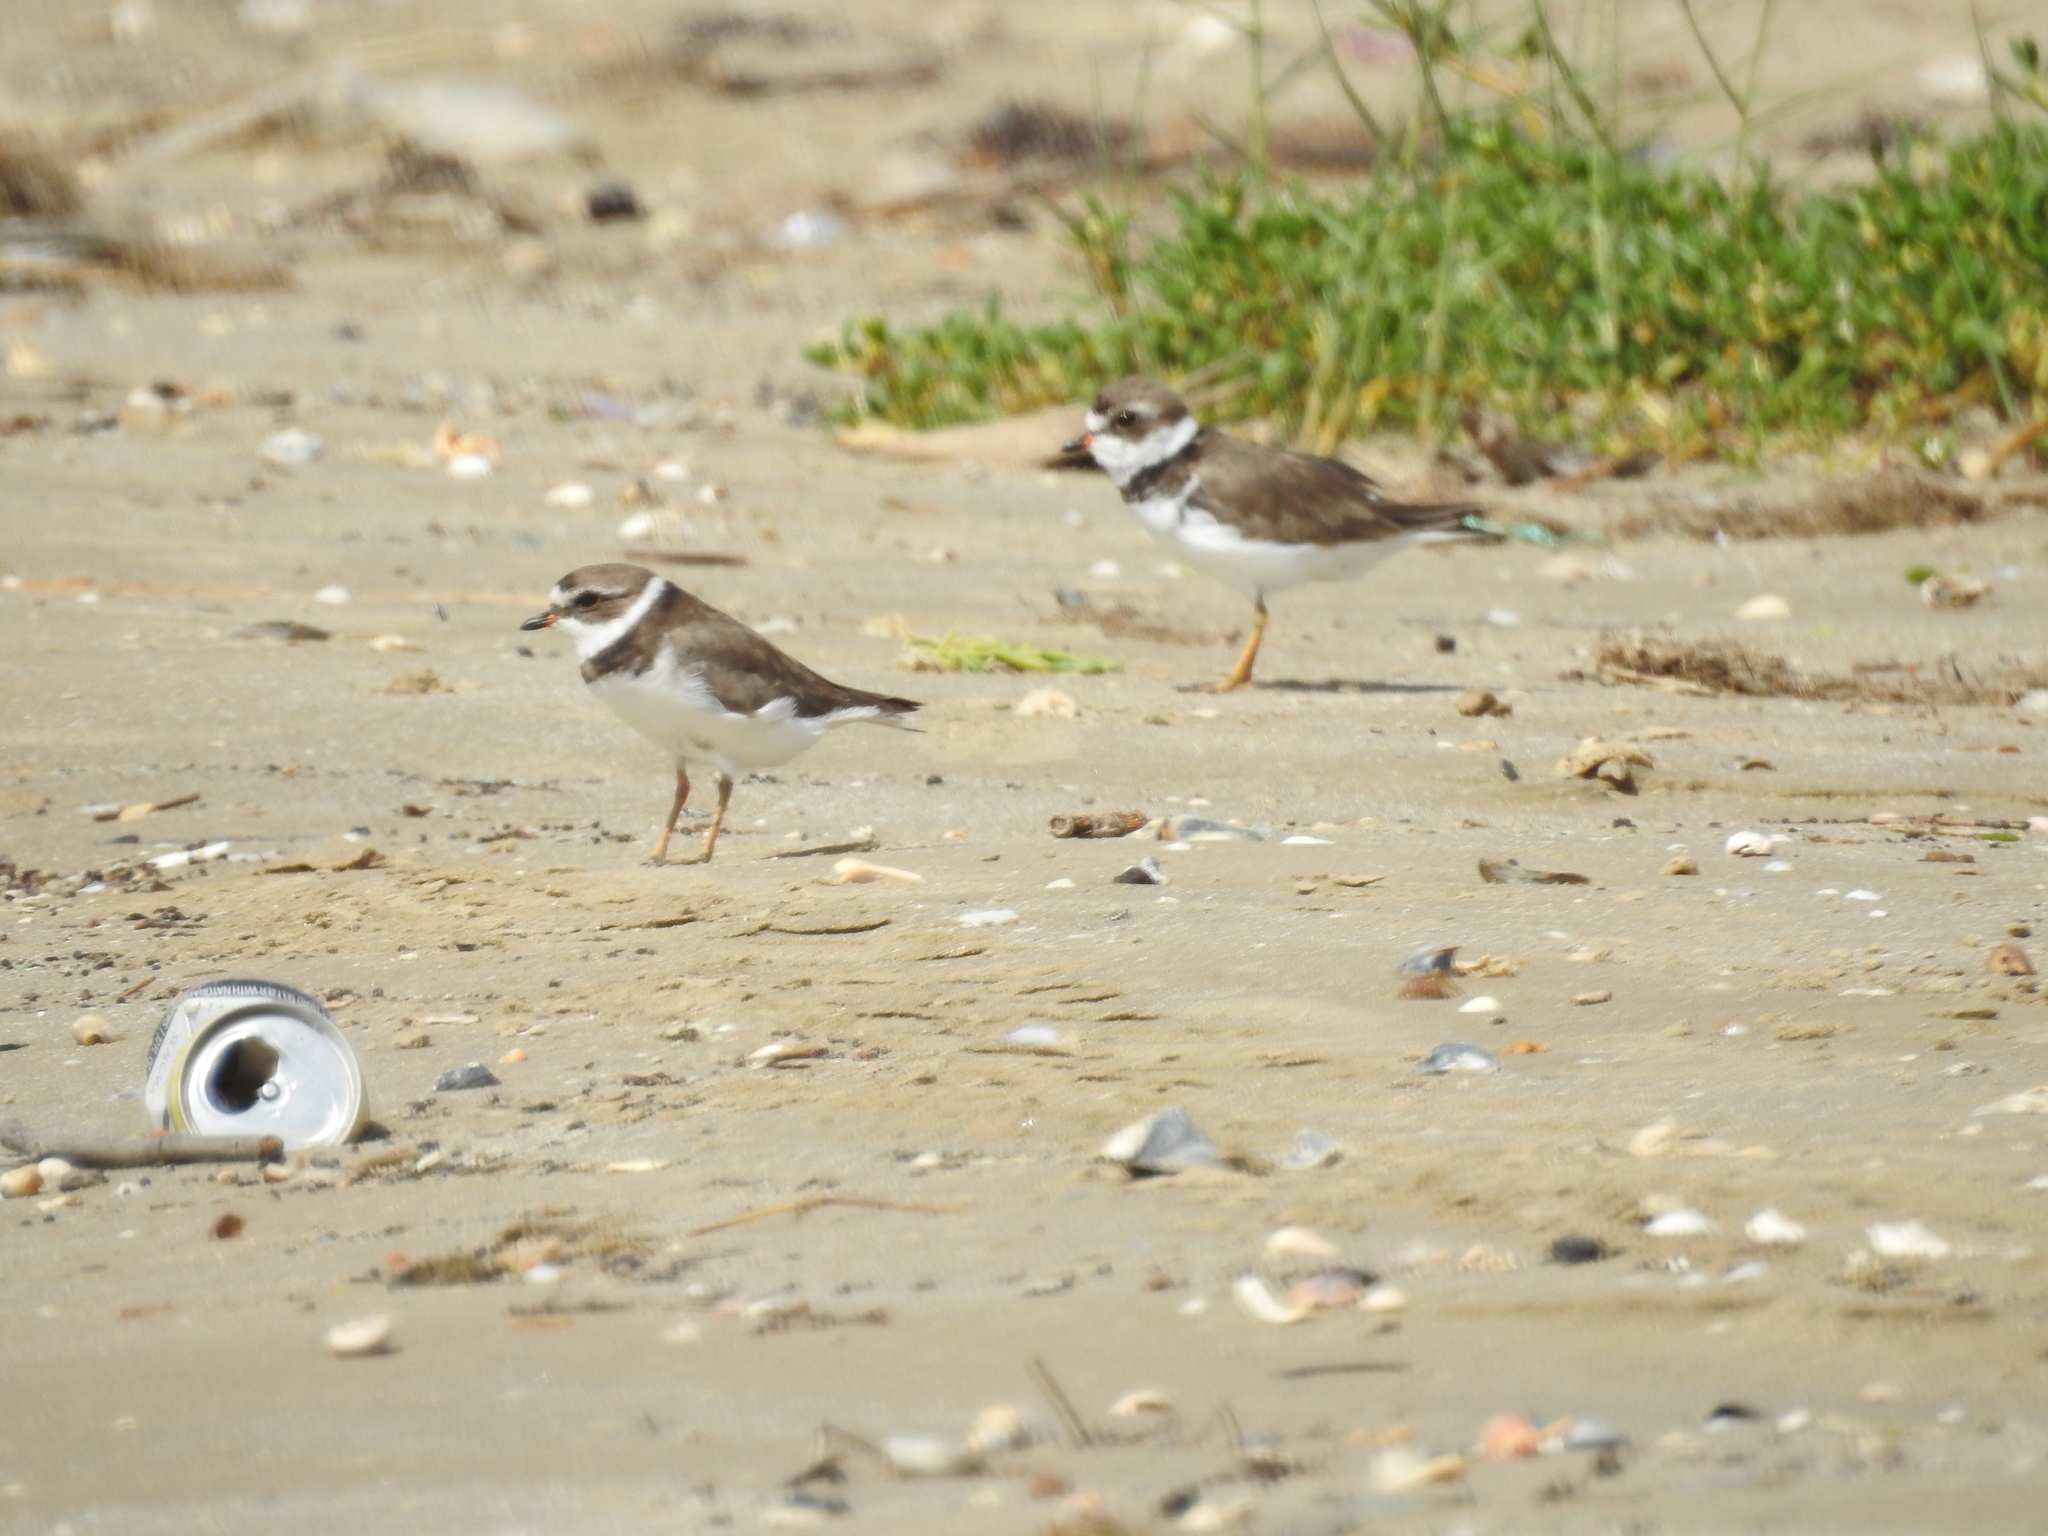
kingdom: Animalia
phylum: Chordata
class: Aves
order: Charadriiformes
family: Charadriidae
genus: Charadrius
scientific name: Charadrius semipalmatus
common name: Semipalmated plover
